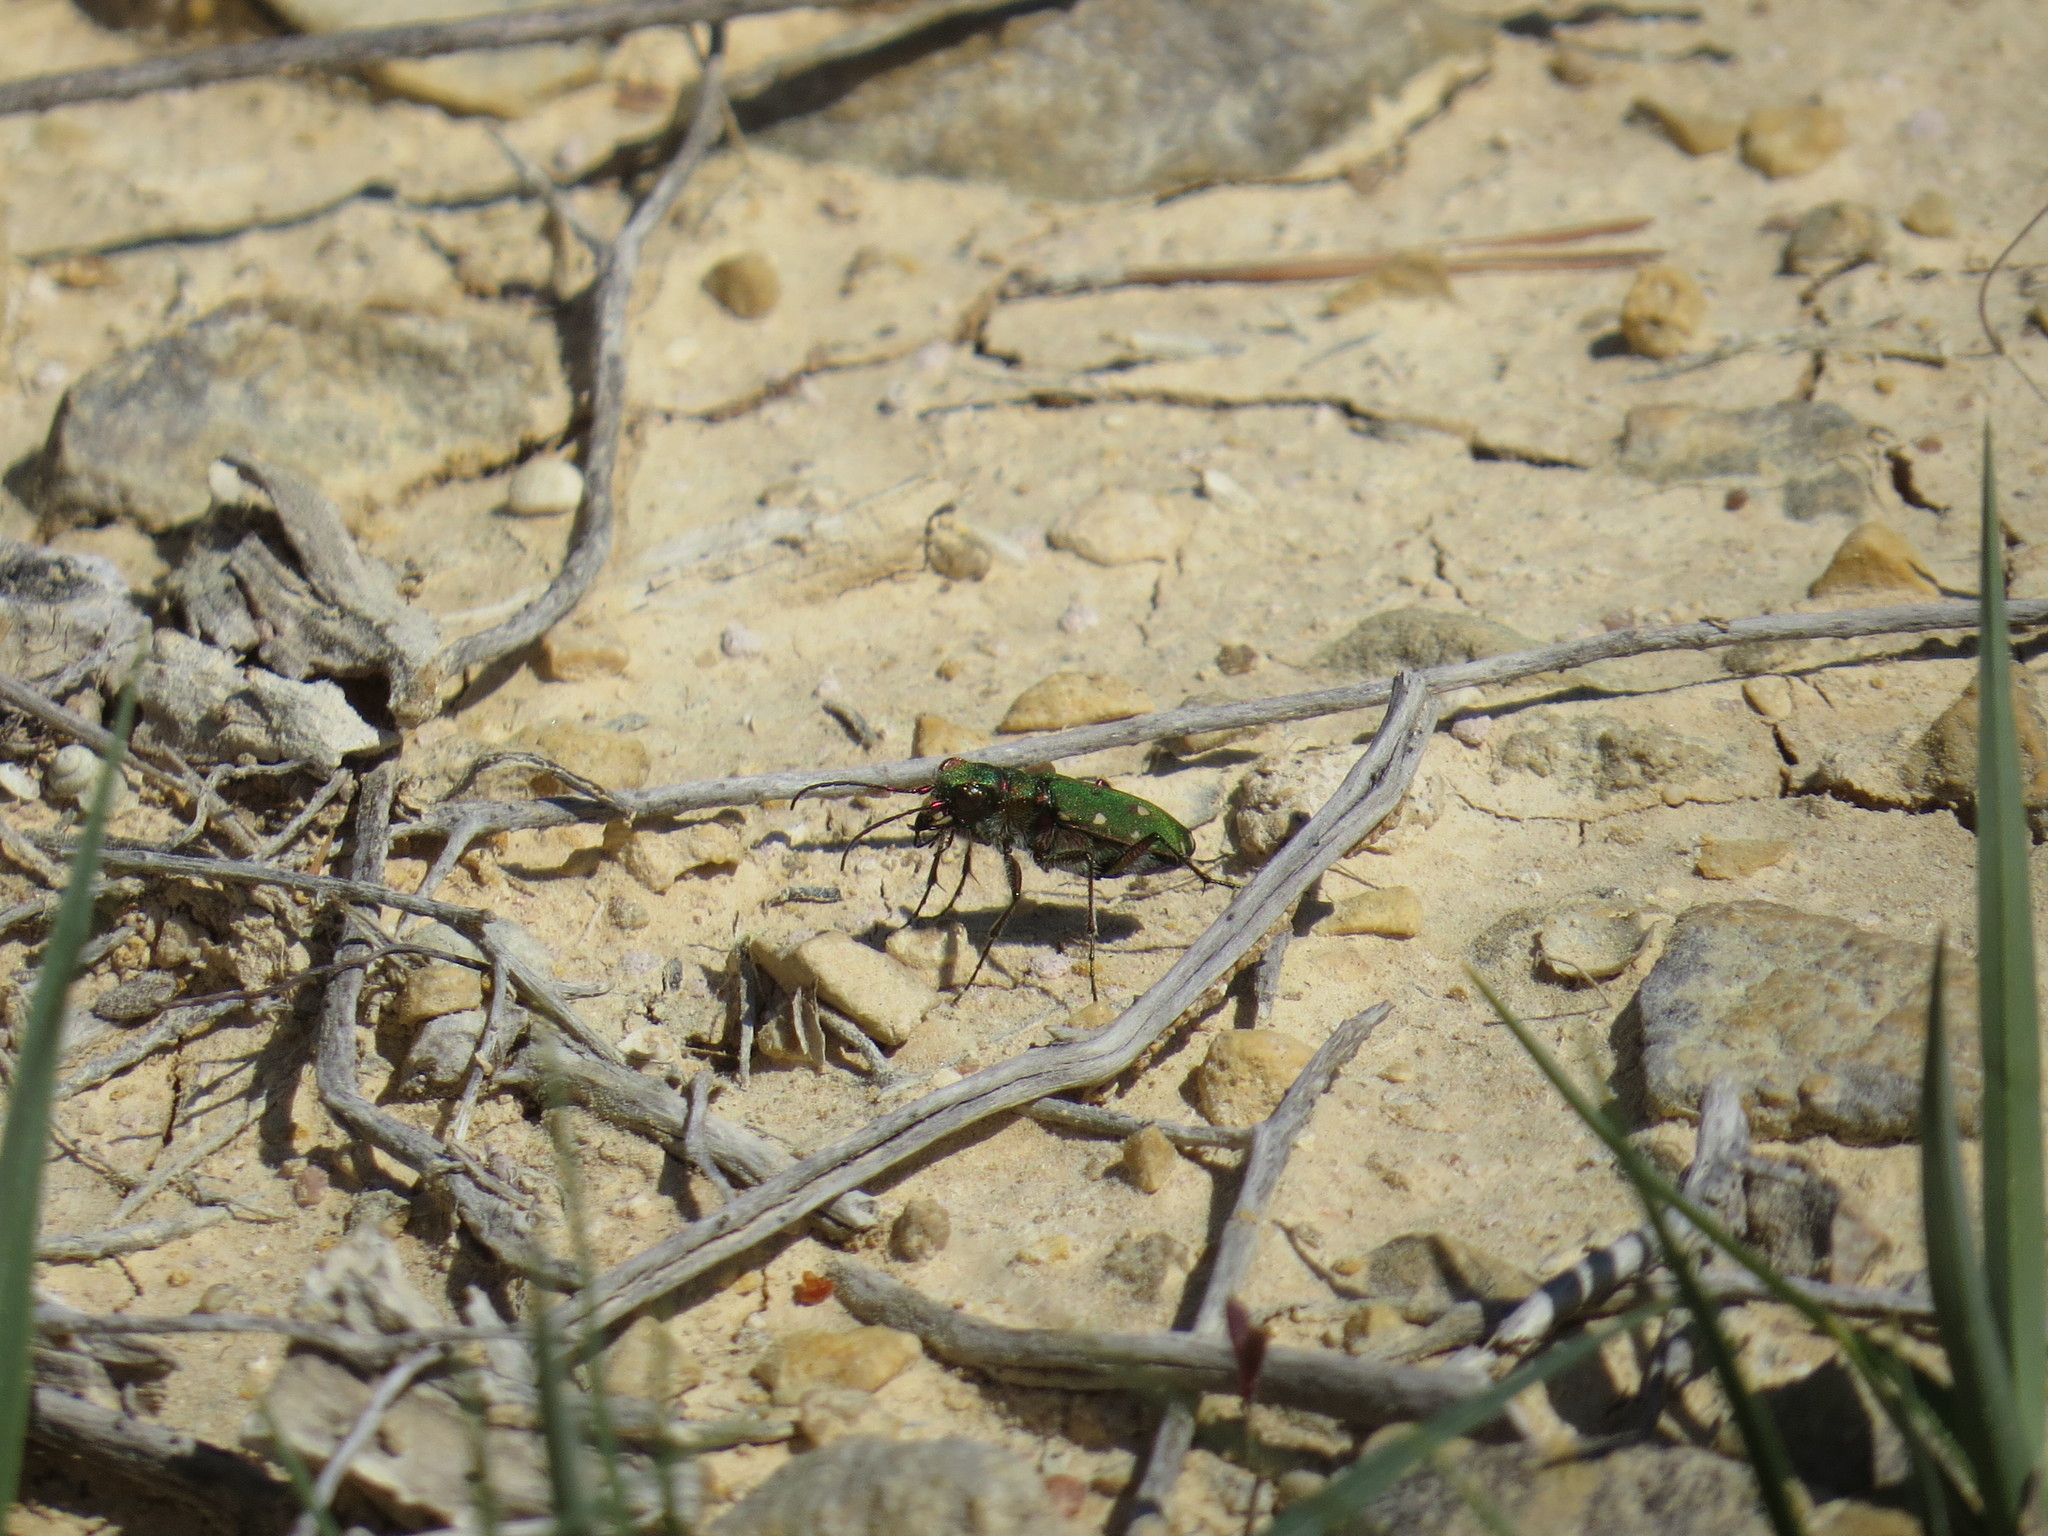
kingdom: Animalia
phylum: Arthropoda
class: Insecta
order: Coleoptera
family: Carabidae
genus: Cicindela
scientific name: Cicindela campestris
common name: Common tiger beetle
